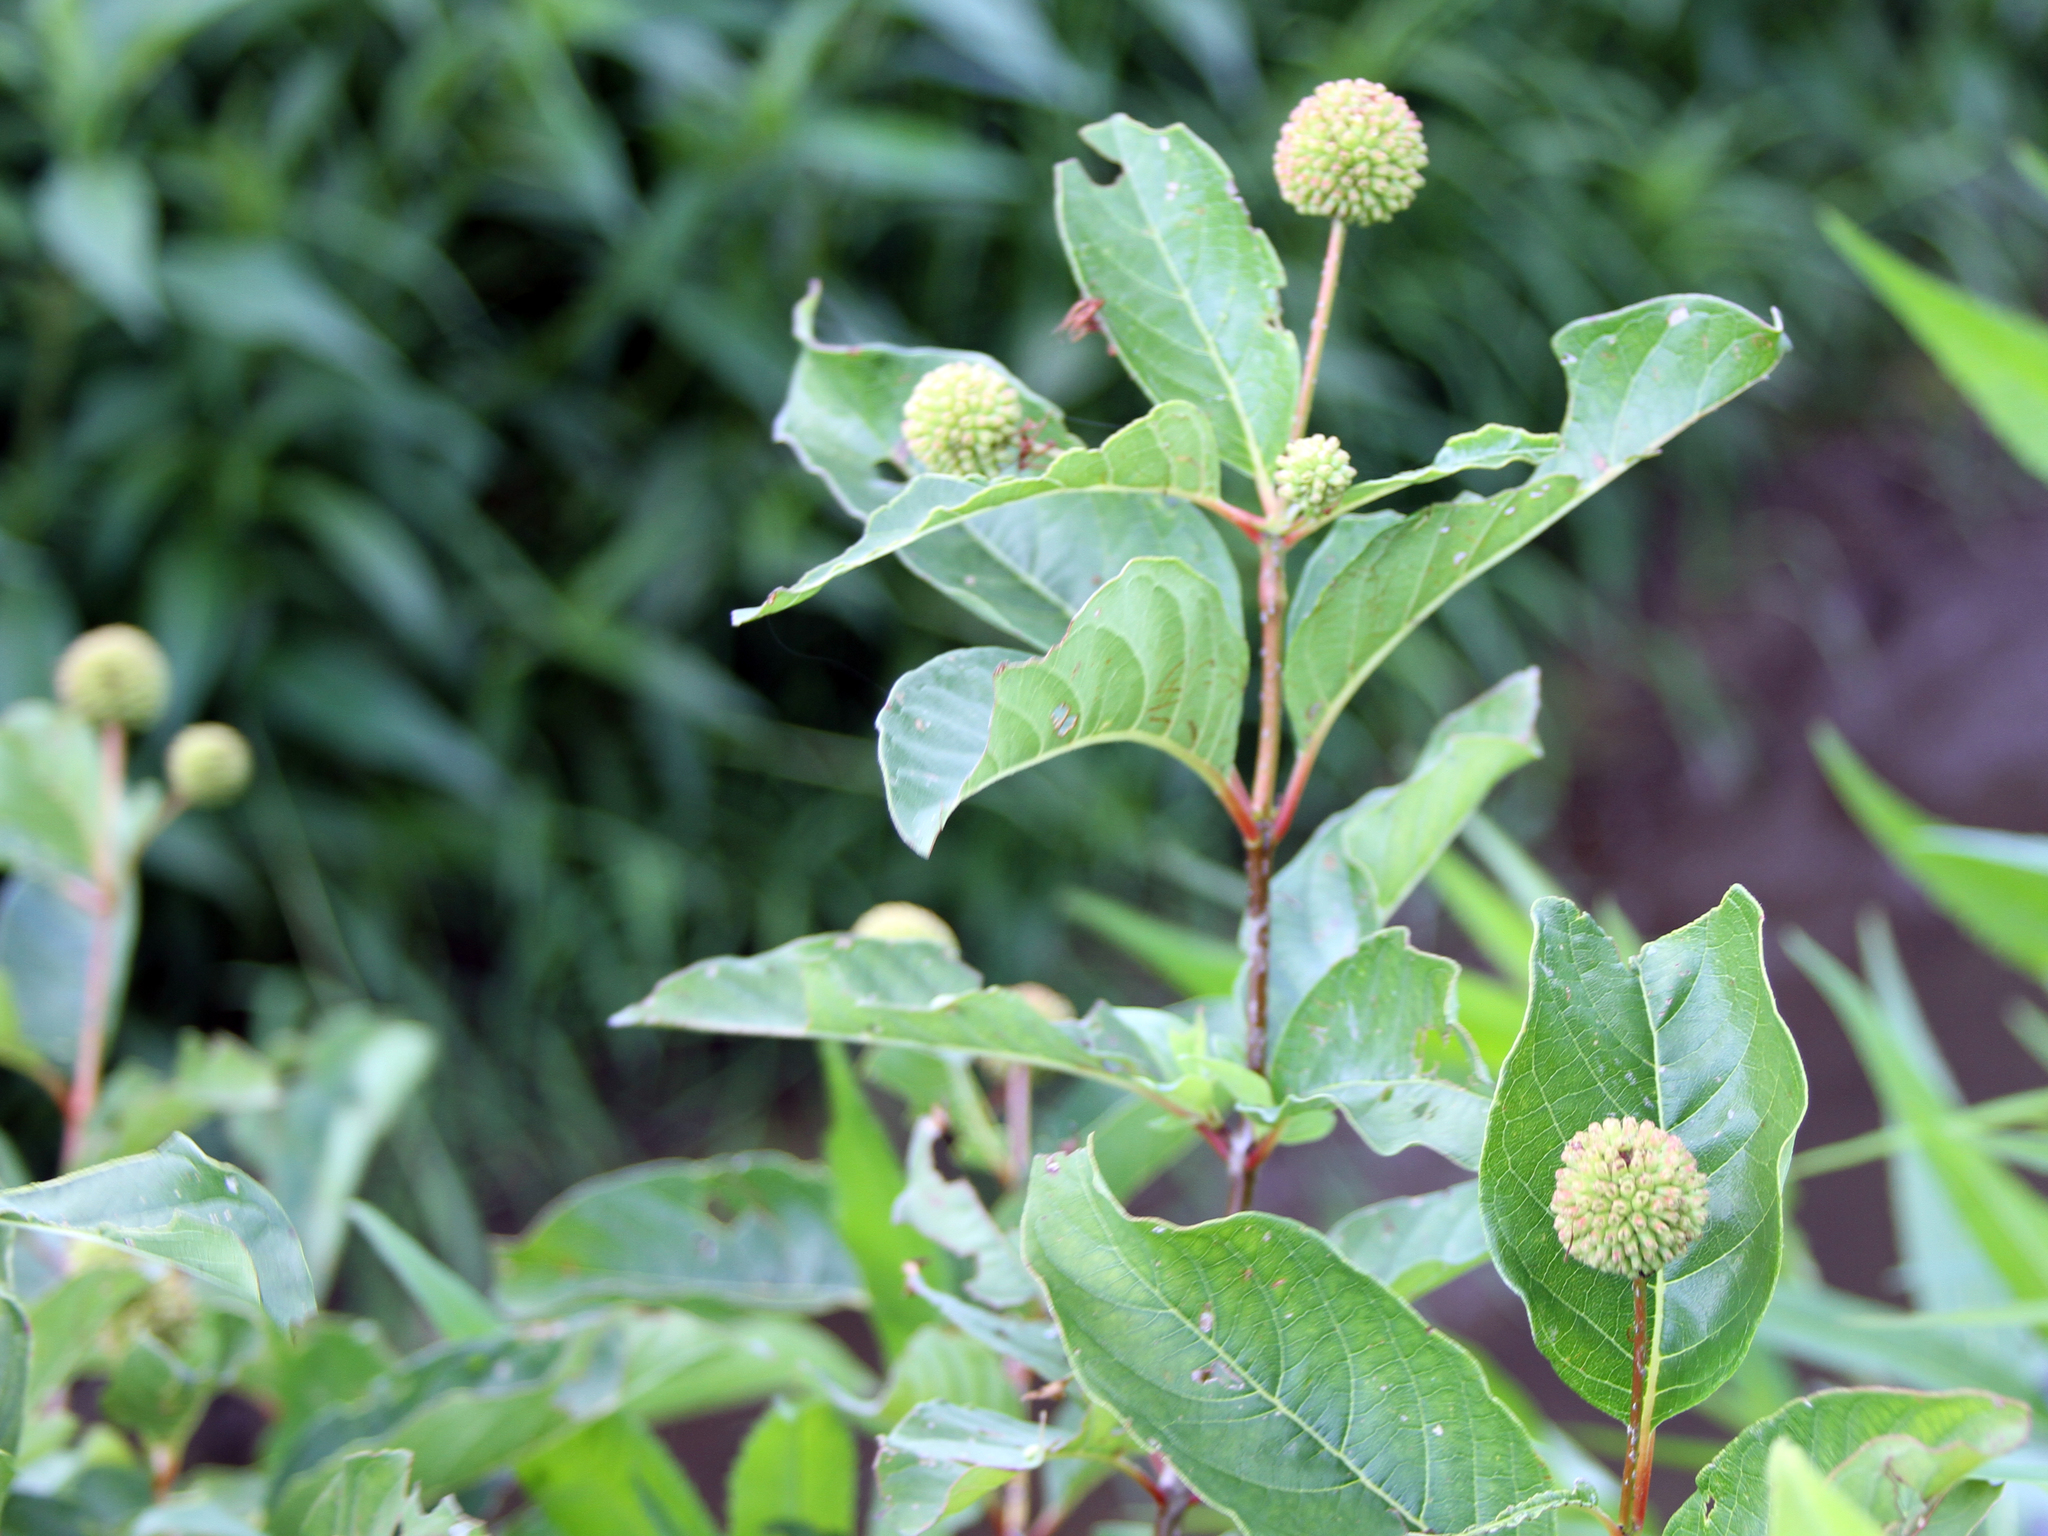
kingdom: Plantae
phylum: Tracheophyta
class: Magnoliopsida
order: Gentianales
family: Rubiaceae
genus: Cephalanthus
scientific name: Cephalanthus occidentalis
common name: Button-willow
